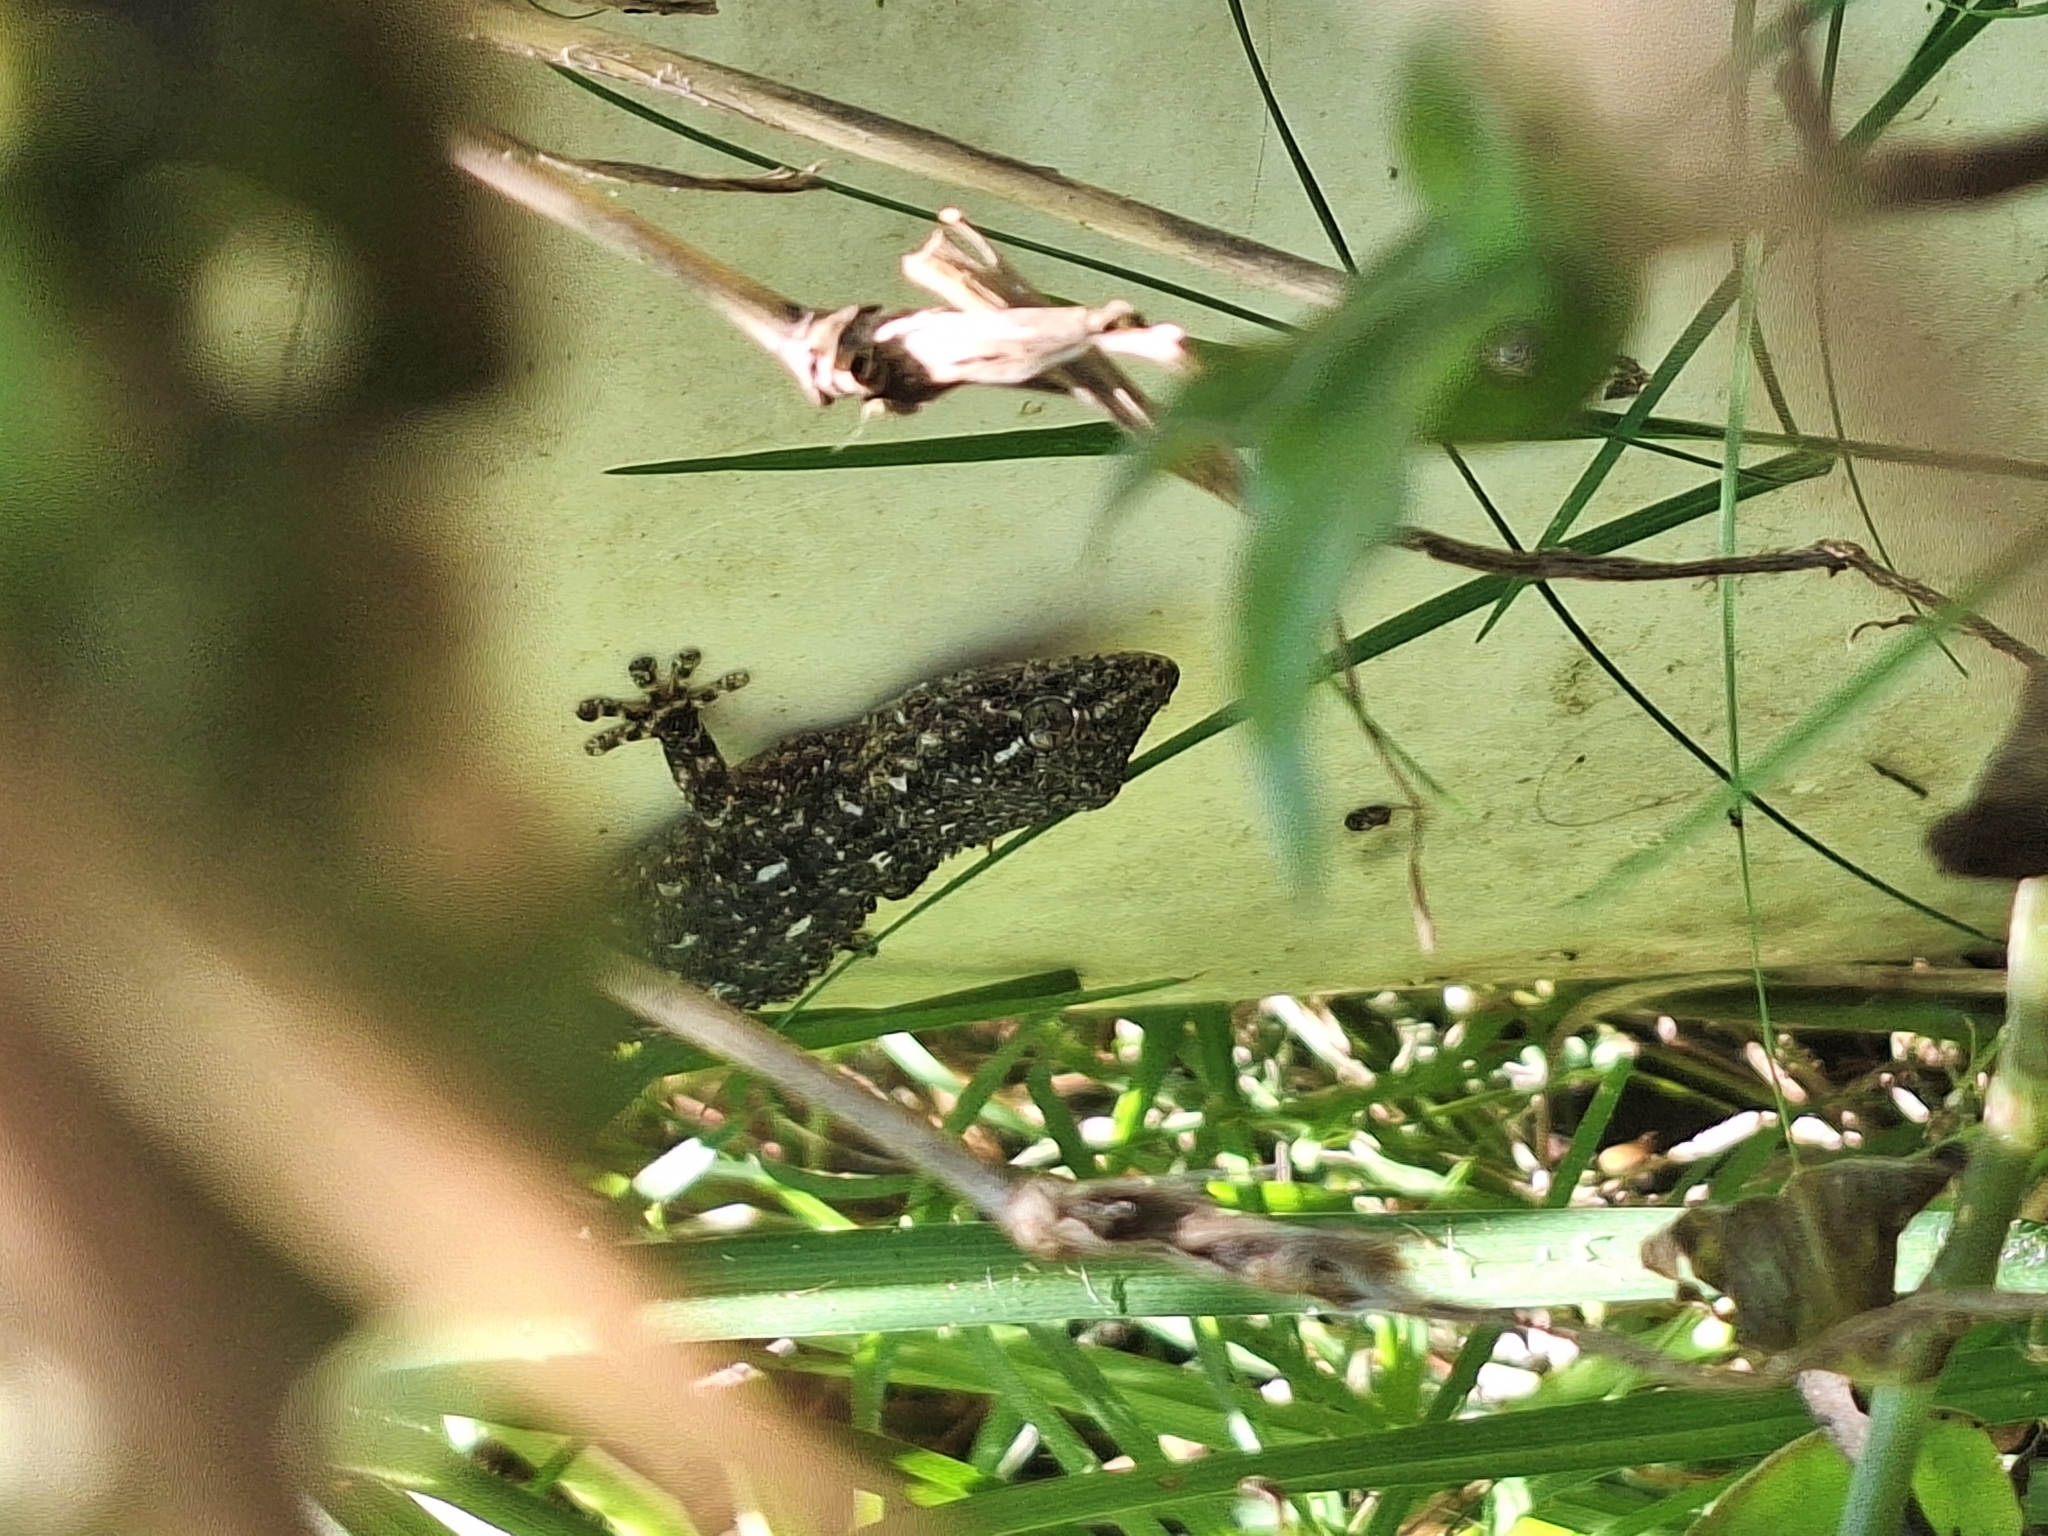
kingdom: Animalia
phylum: Chordata
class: Squamata
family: Phyllodactylidae
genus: Tarentola
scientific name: Tarentola mauritanica
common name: Moorish gecko
